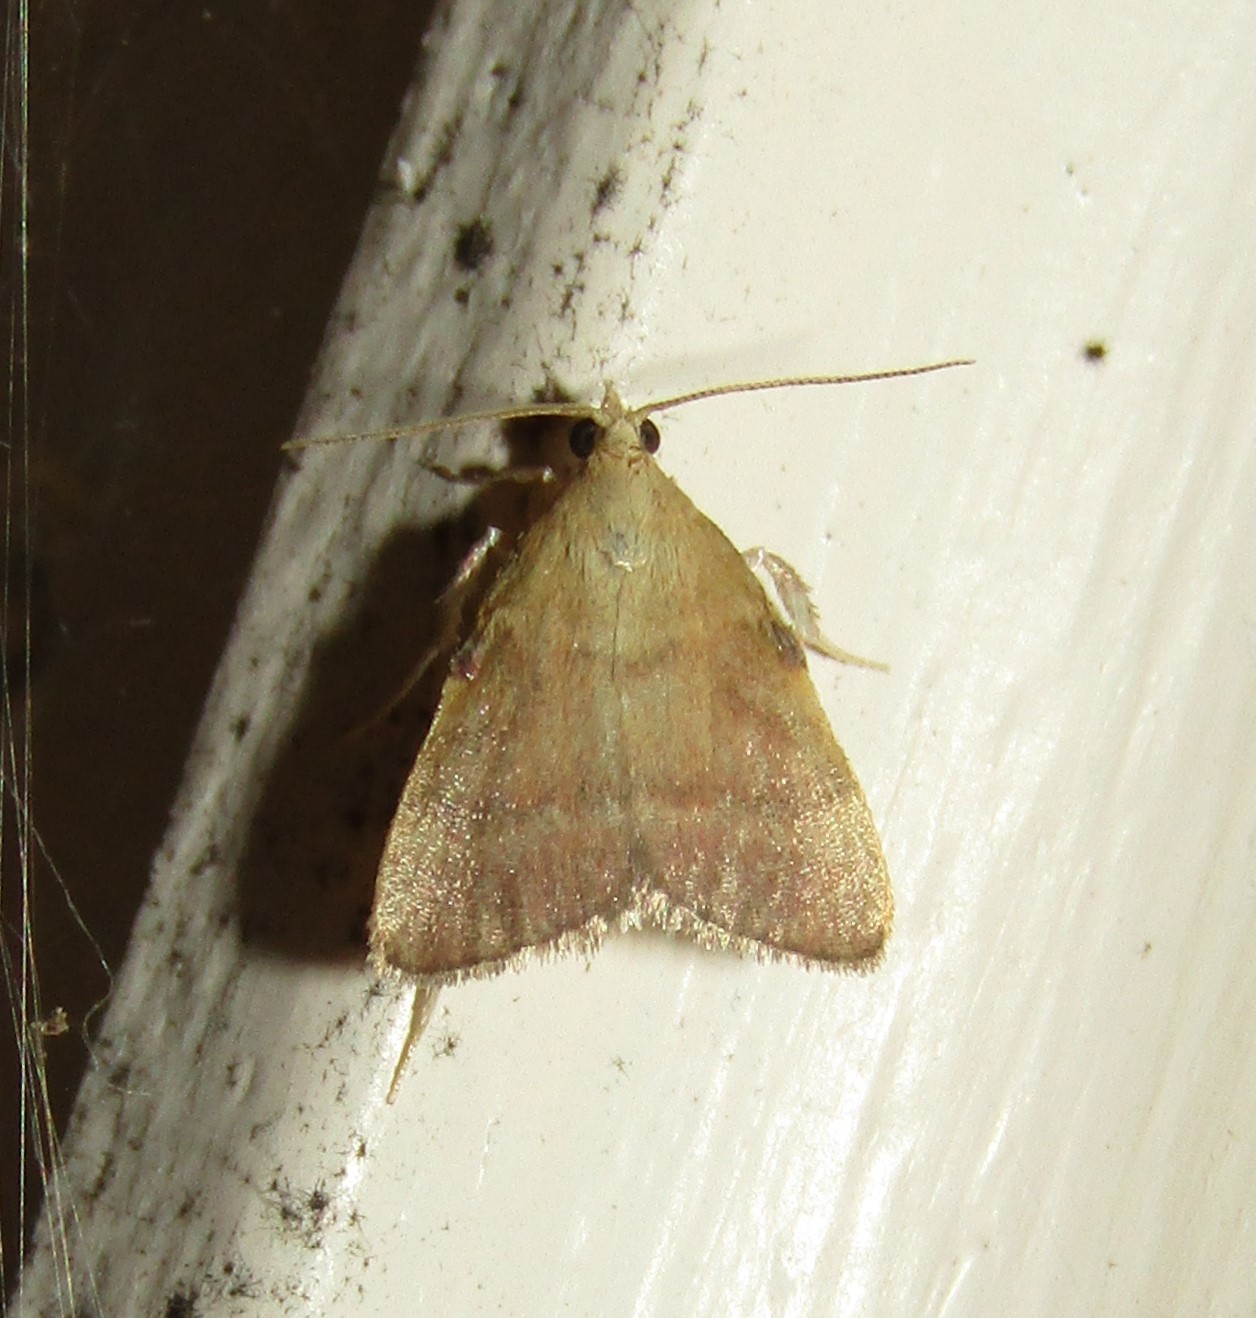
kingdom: Animalia
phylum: Arthropoda
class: Insecta
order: Lepidoptera
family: Pyralidae
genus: Condylolomia
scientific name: Condylolomia participialis
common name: Drab condylolomia moth
